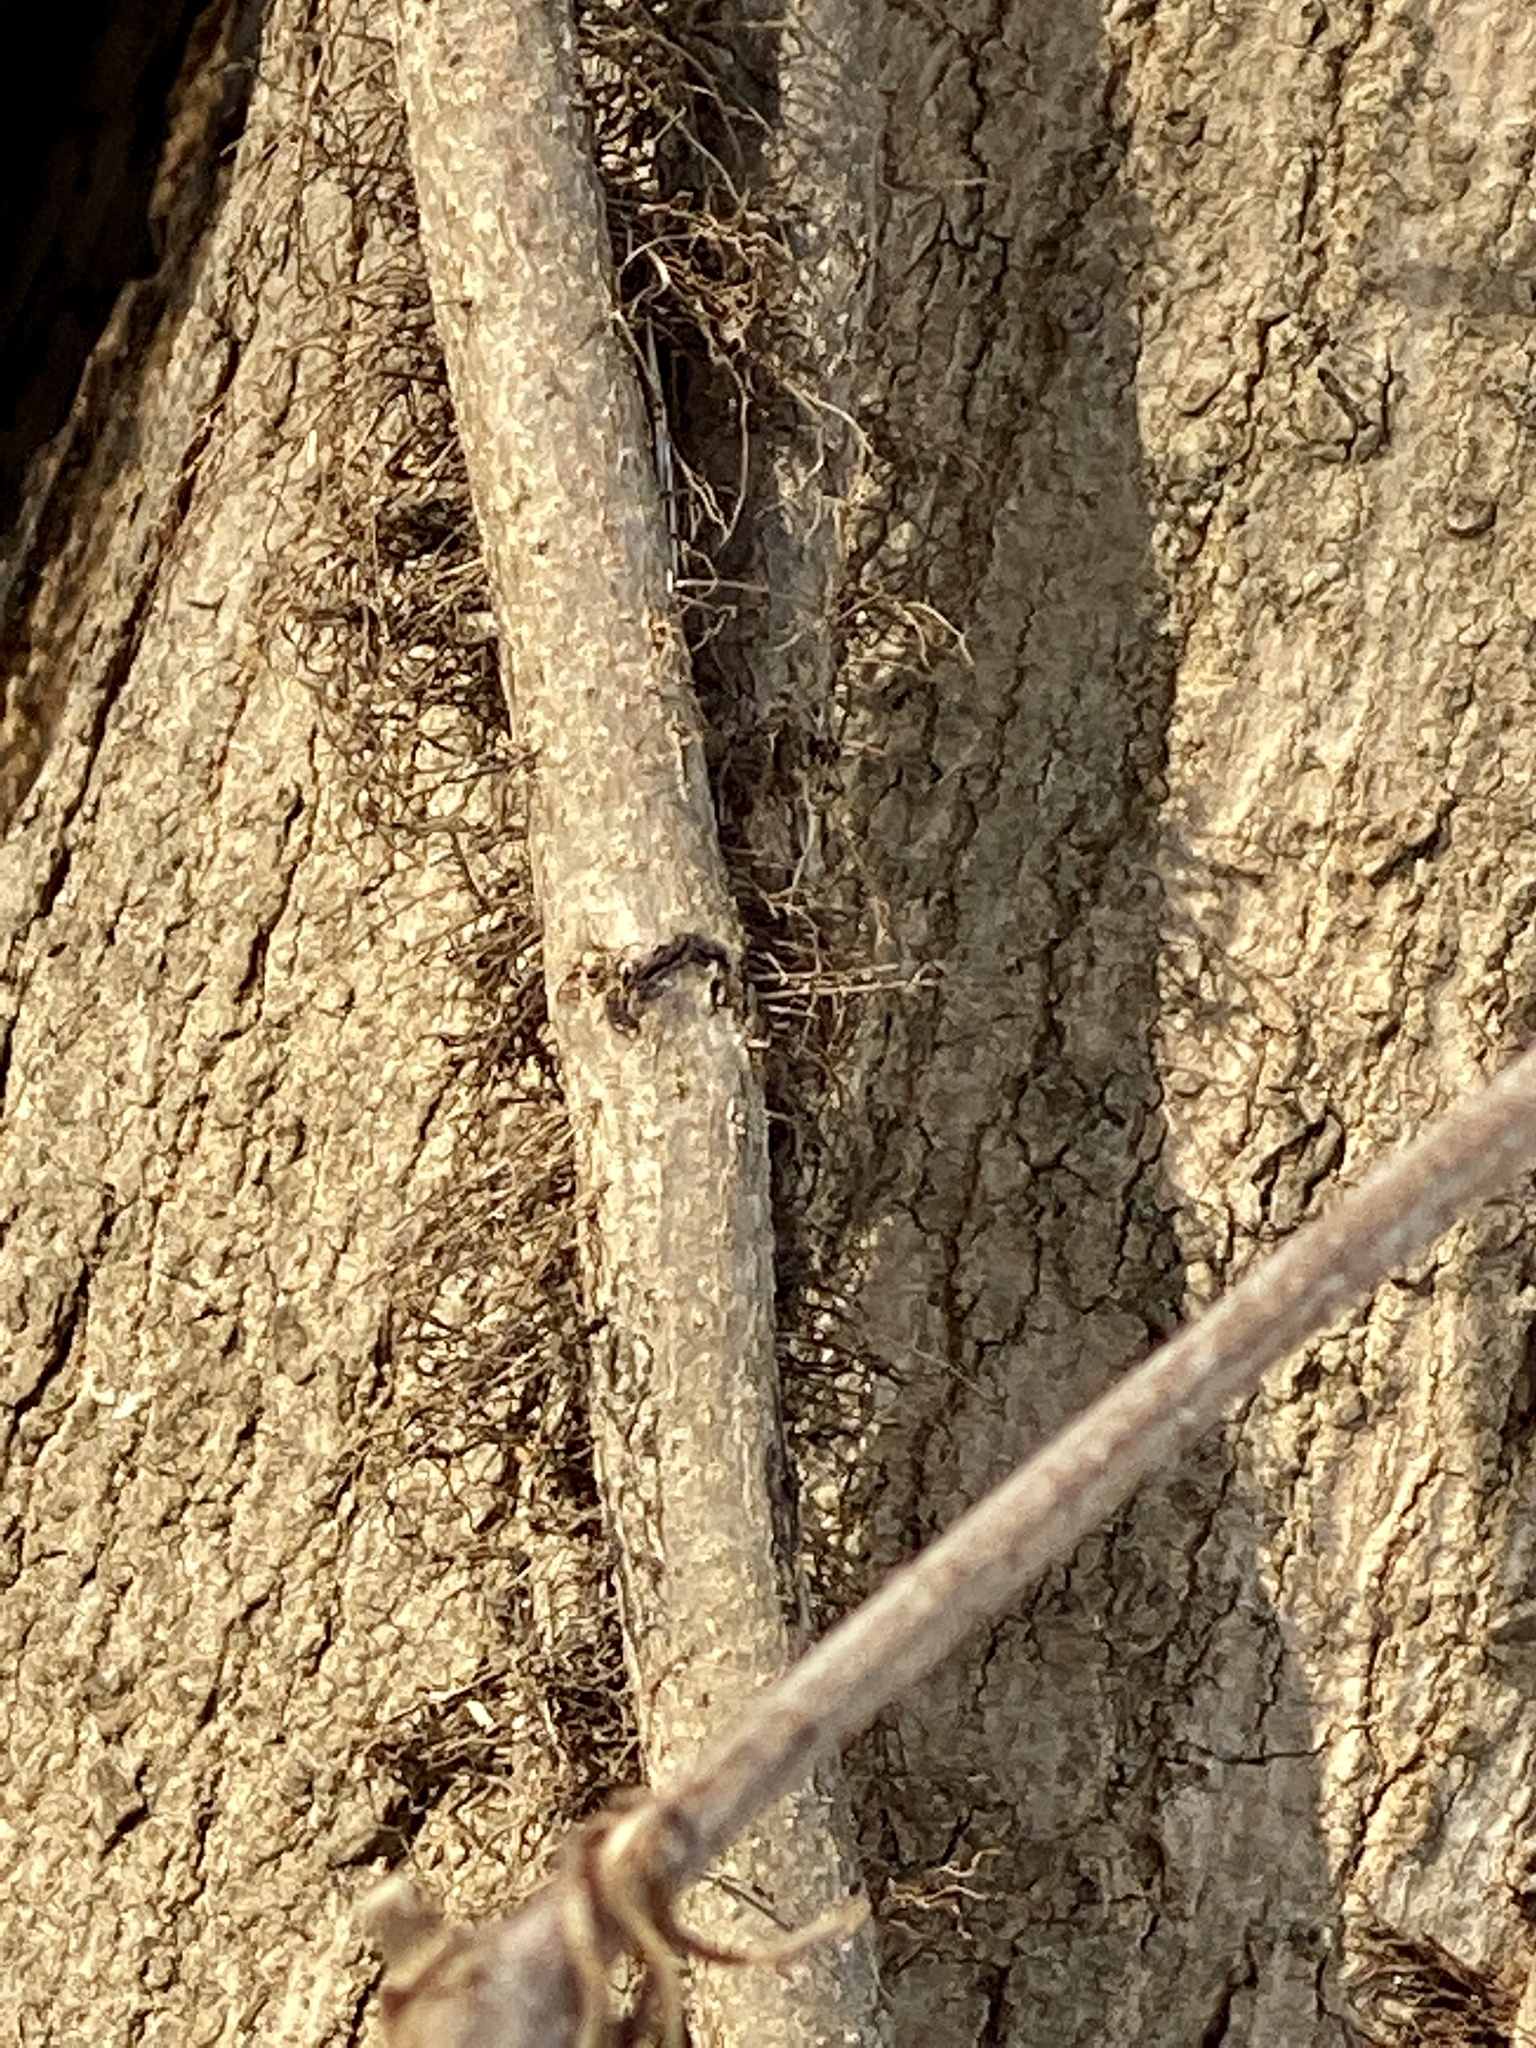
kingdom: Plantae
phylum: Tracheophyta
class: Magnoliopsida
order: Sapindales
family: Anacardiaceae
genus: Toxicodendron
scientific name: Toxicodendron radicans
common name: Poison ivy
